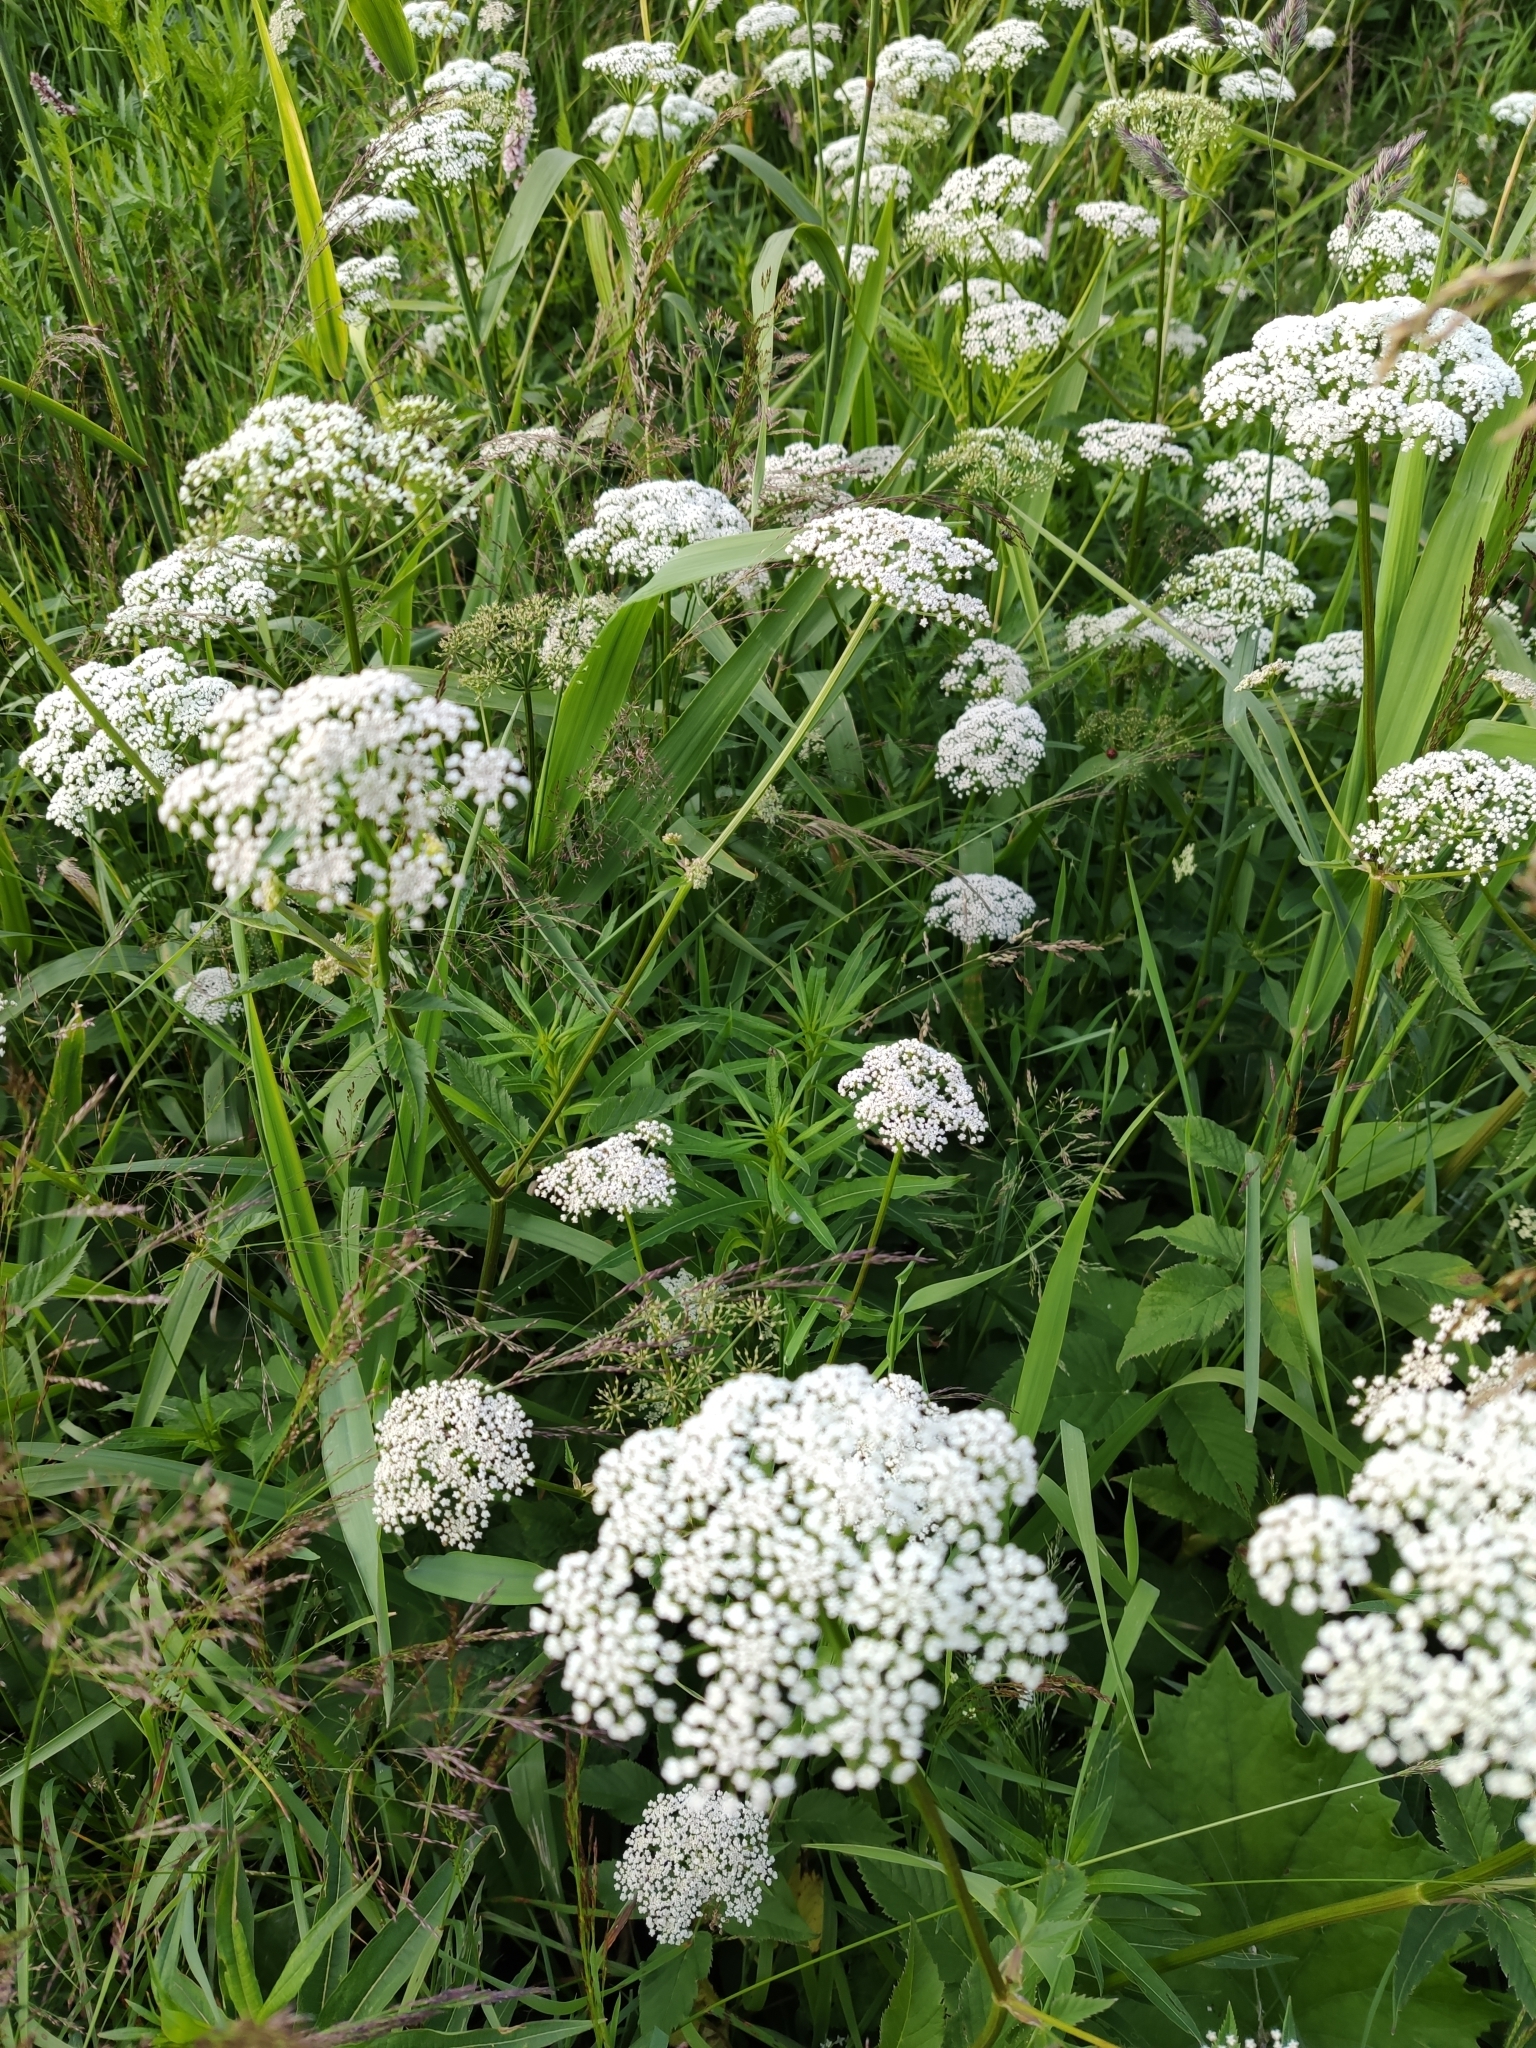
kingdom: Plantae
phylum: Tracheophyta
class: Magnoliopsida
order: Apiales
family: Apiaceae
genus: Aegopodium
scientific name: Aegopodium podagraria
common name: Ground-elder
